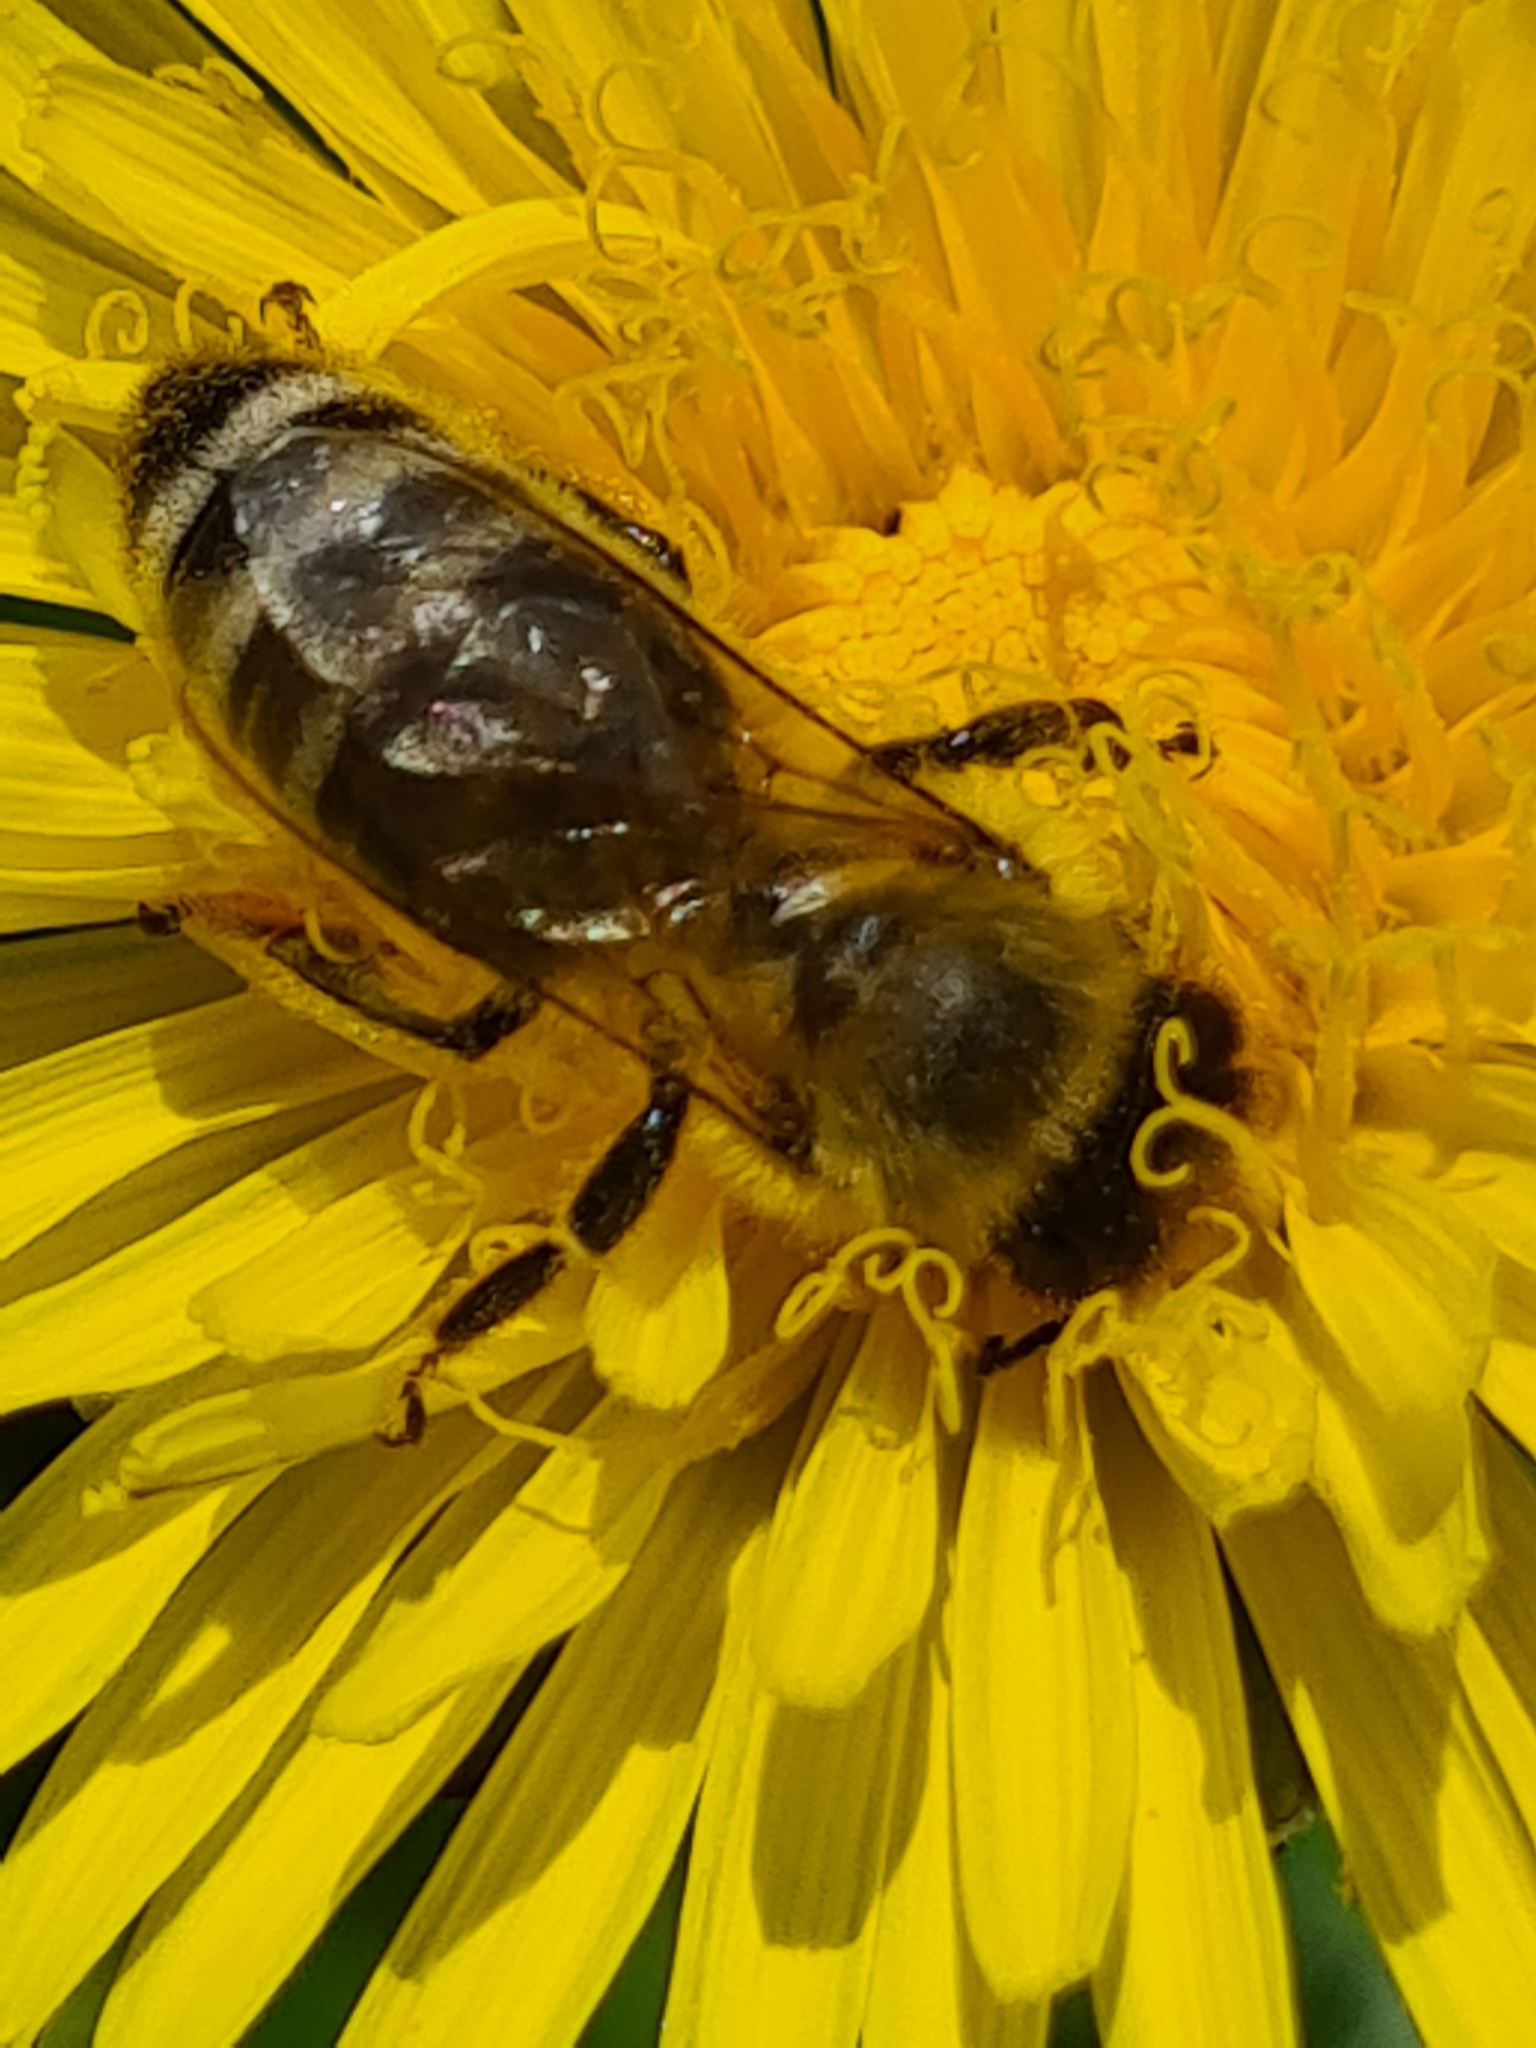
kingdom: Animalia
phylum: Arthropoda
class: Insecta
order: Hymenoptera
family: Apidae
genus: Apis
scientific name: Apis mellifera
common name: Honey bee
